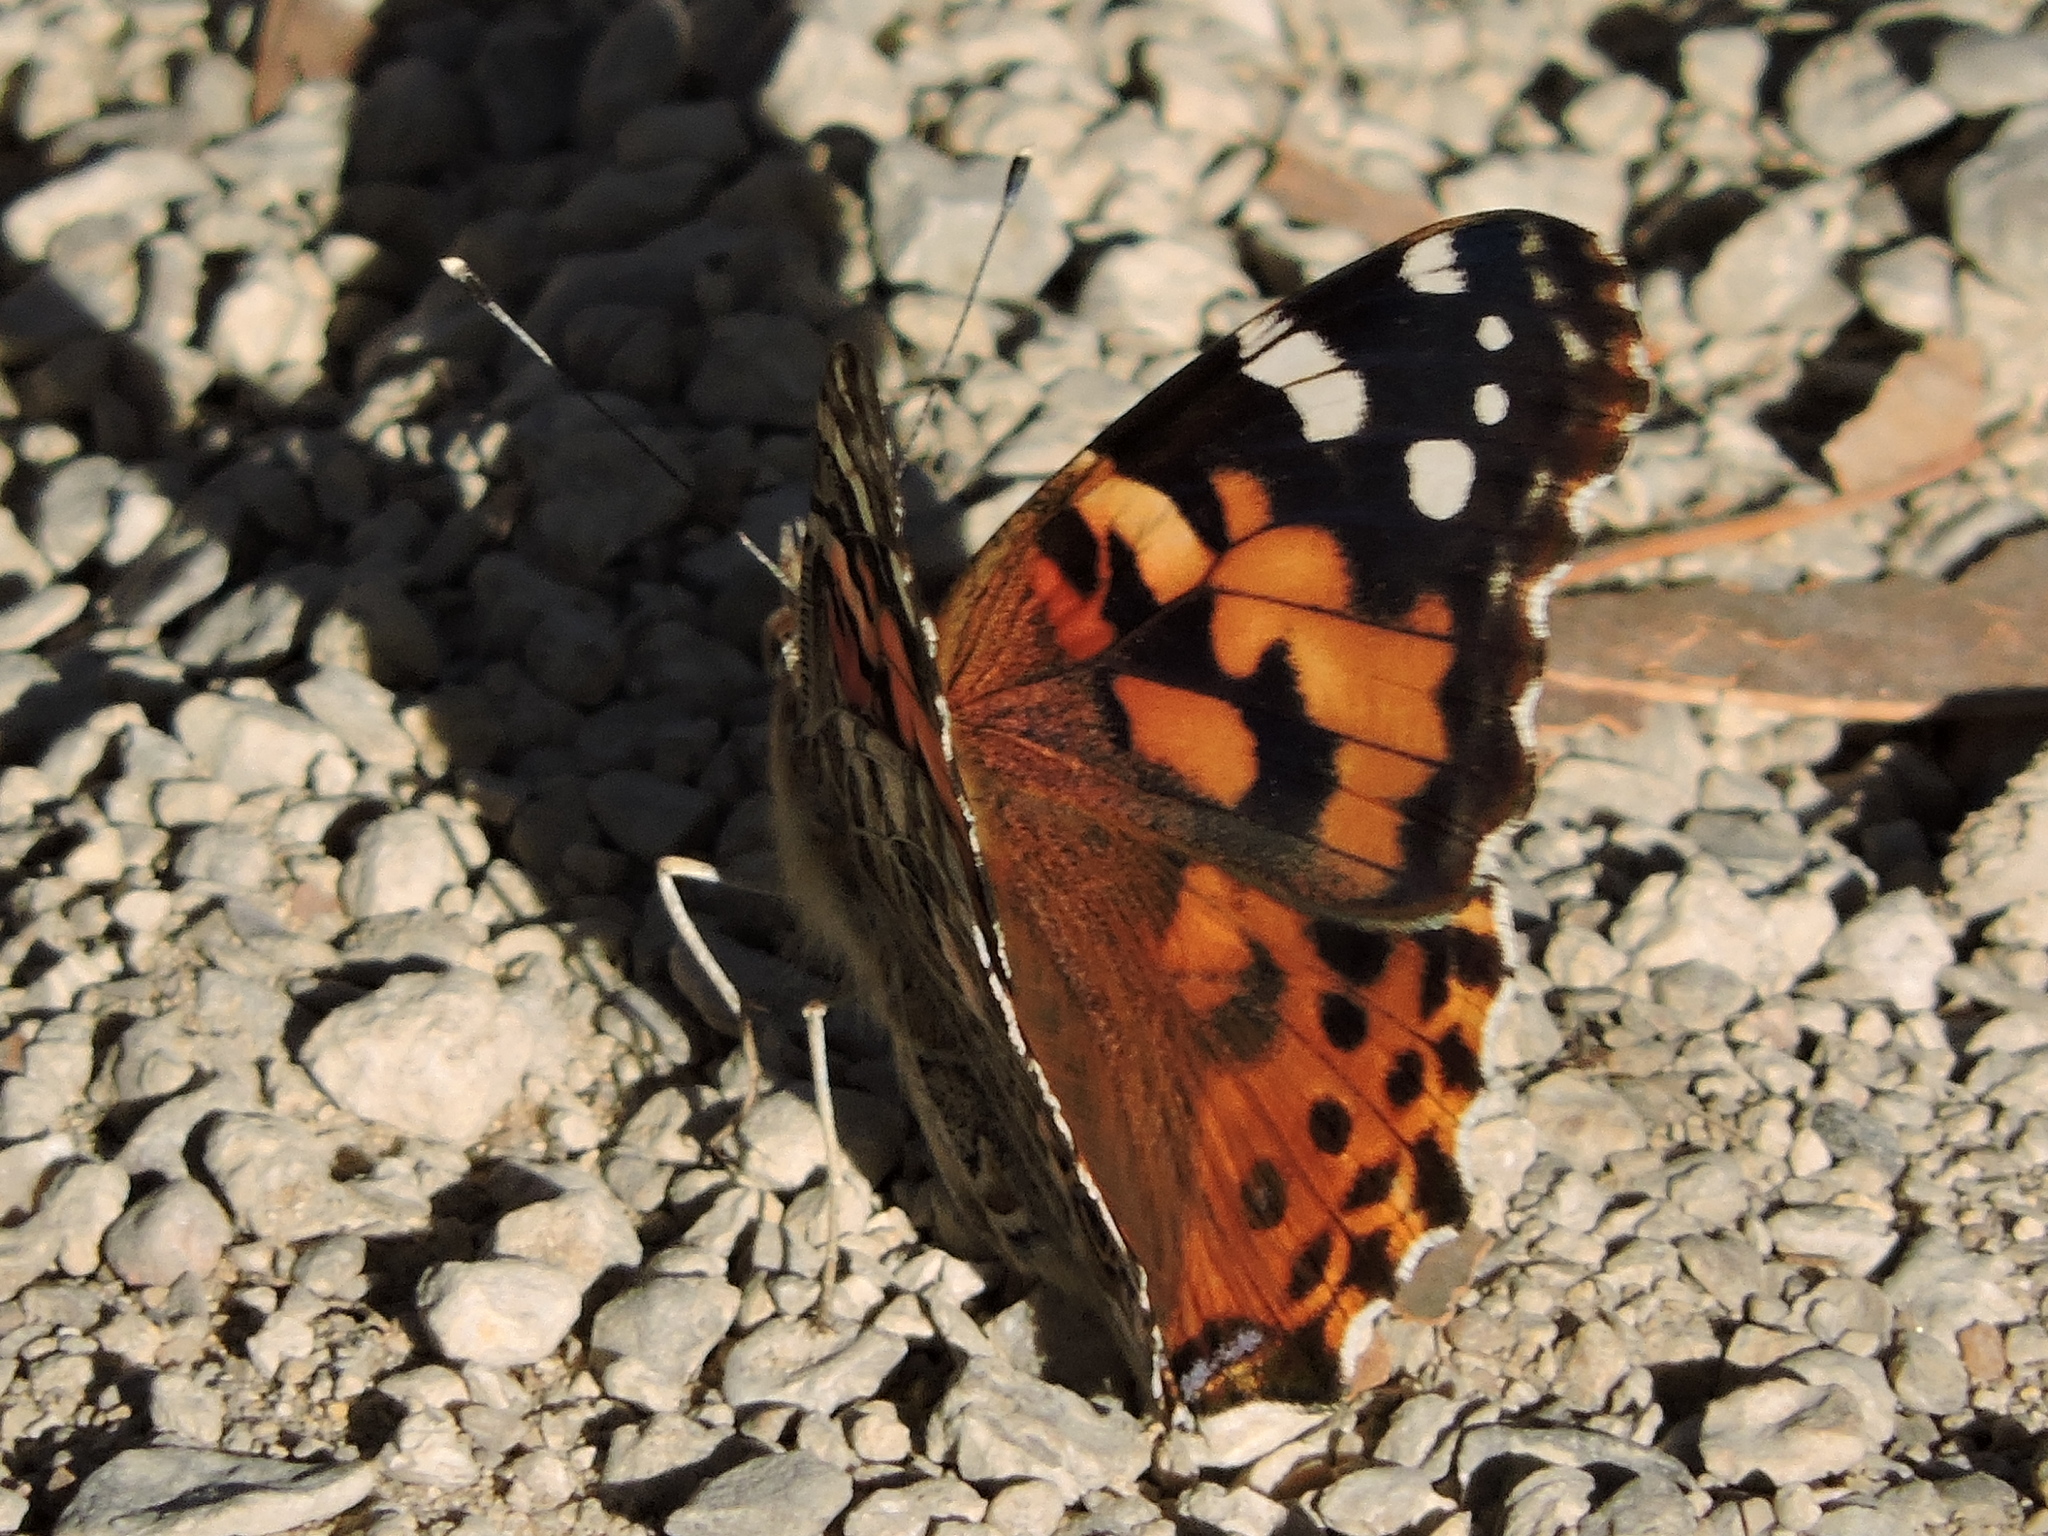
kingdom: Animalia
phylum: Arthropoda
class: Insecta
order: Lepidoptera
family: Nymphalidae
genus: Vanessa
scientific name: Vanessa cardui
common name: Painted lady
